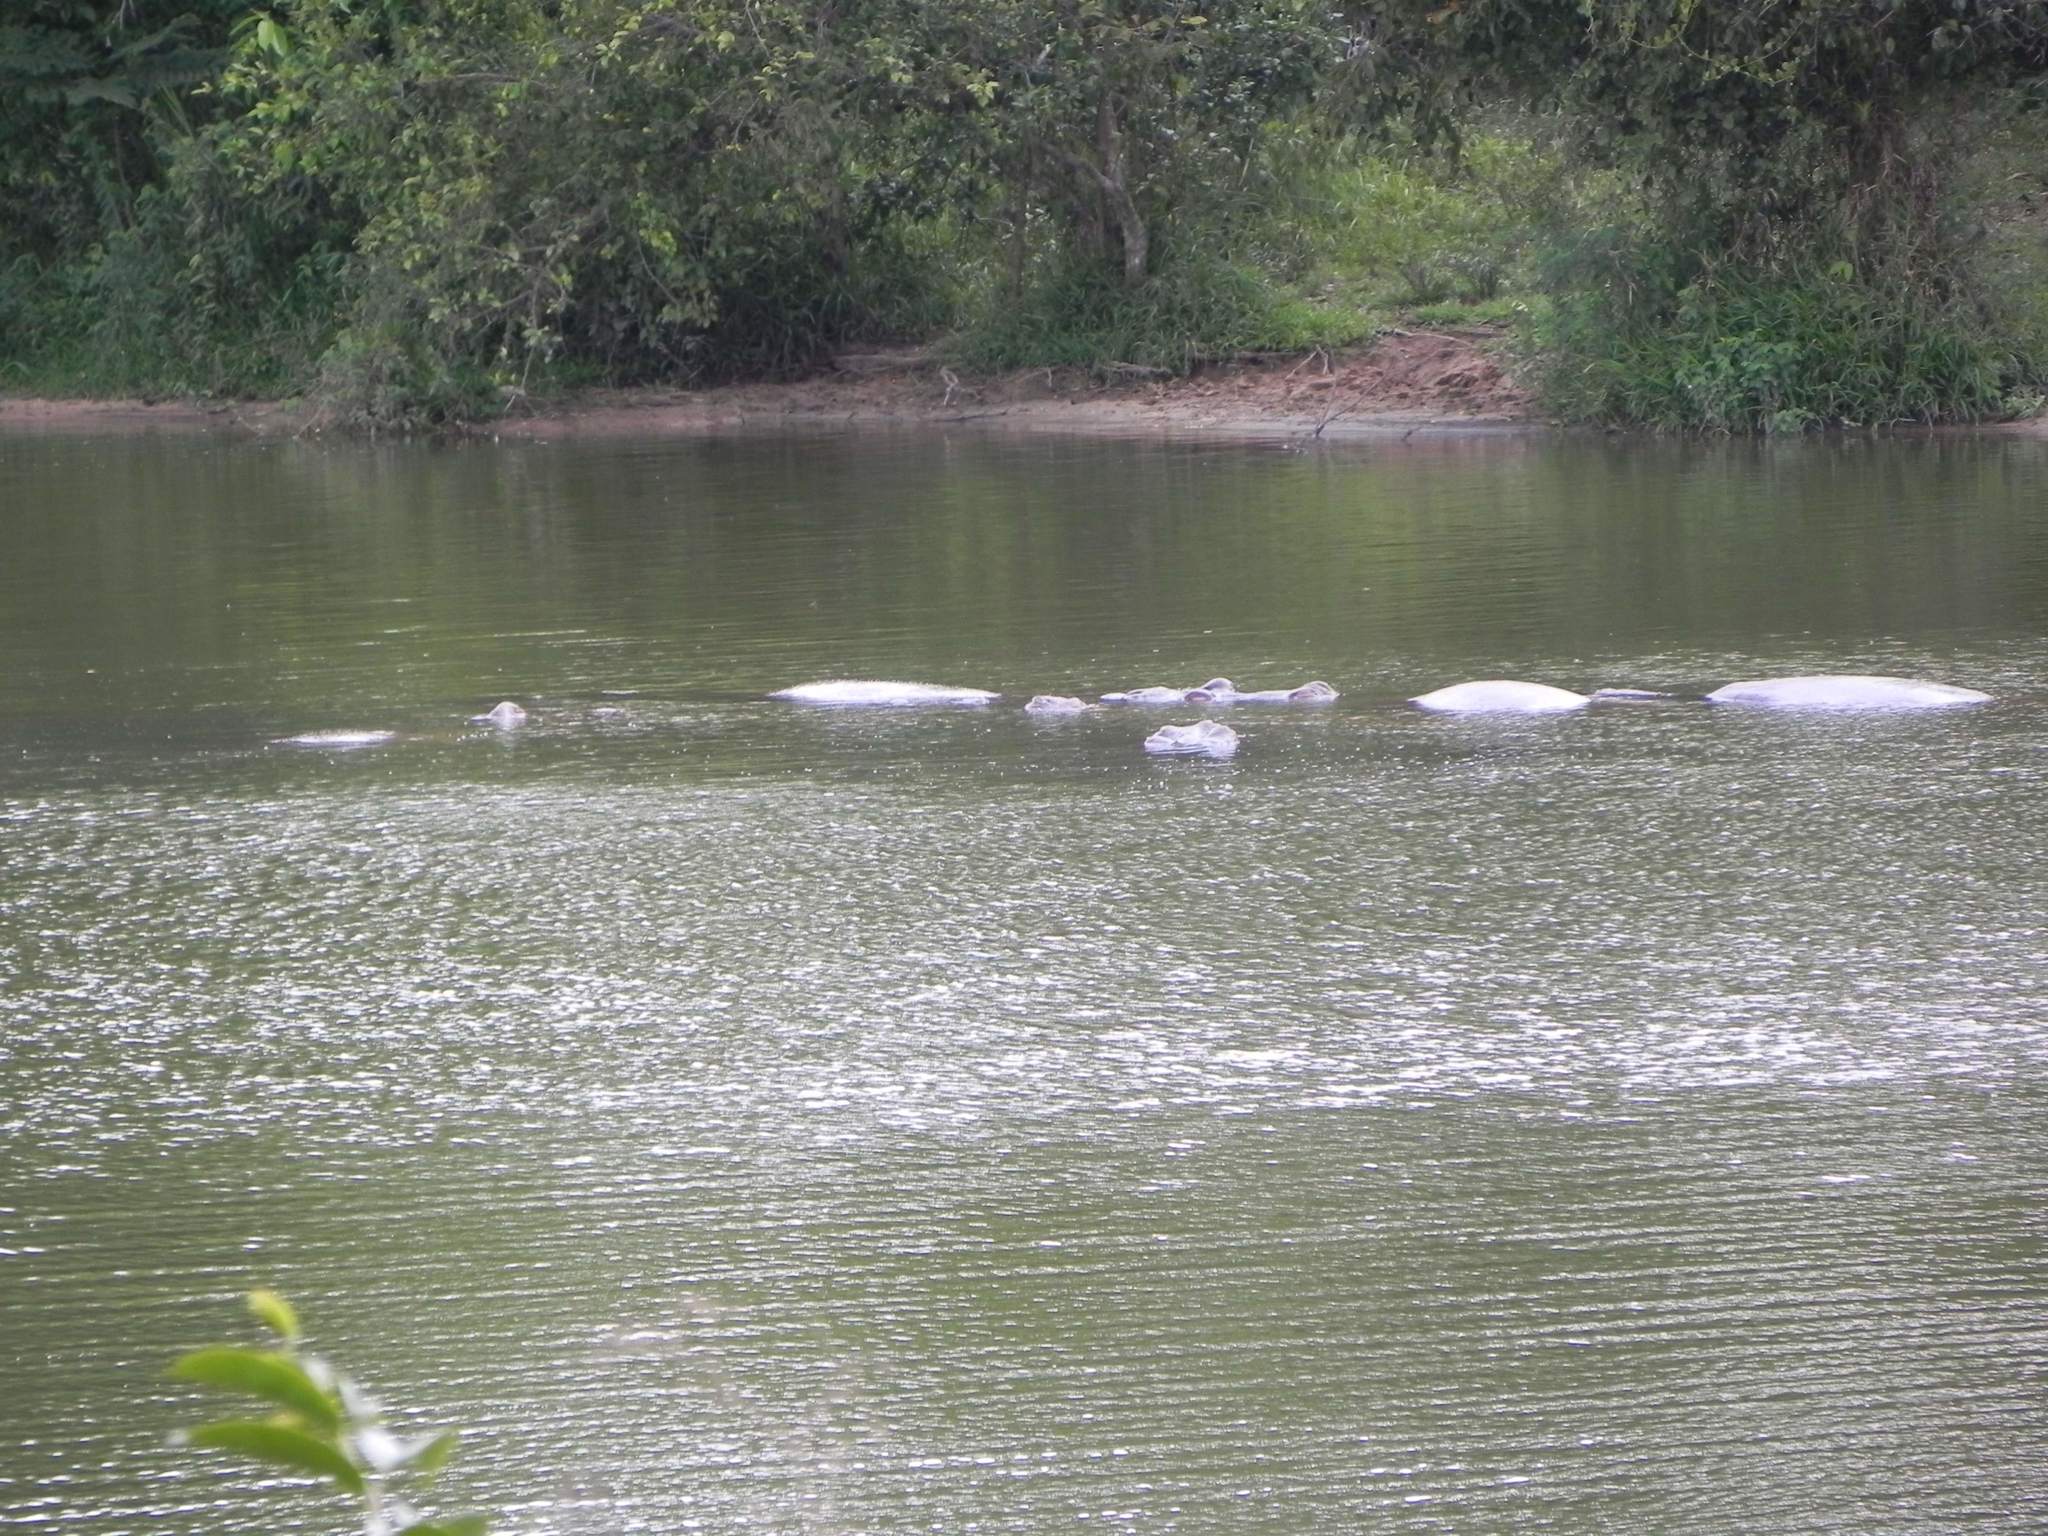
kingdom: Animalia
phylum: Chordata
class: Mammalia
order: Artiodactyla
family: Hippopotamidae
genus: Hippopotamus
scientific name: Hippopotamus amphibius
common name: Common hippopotamus
